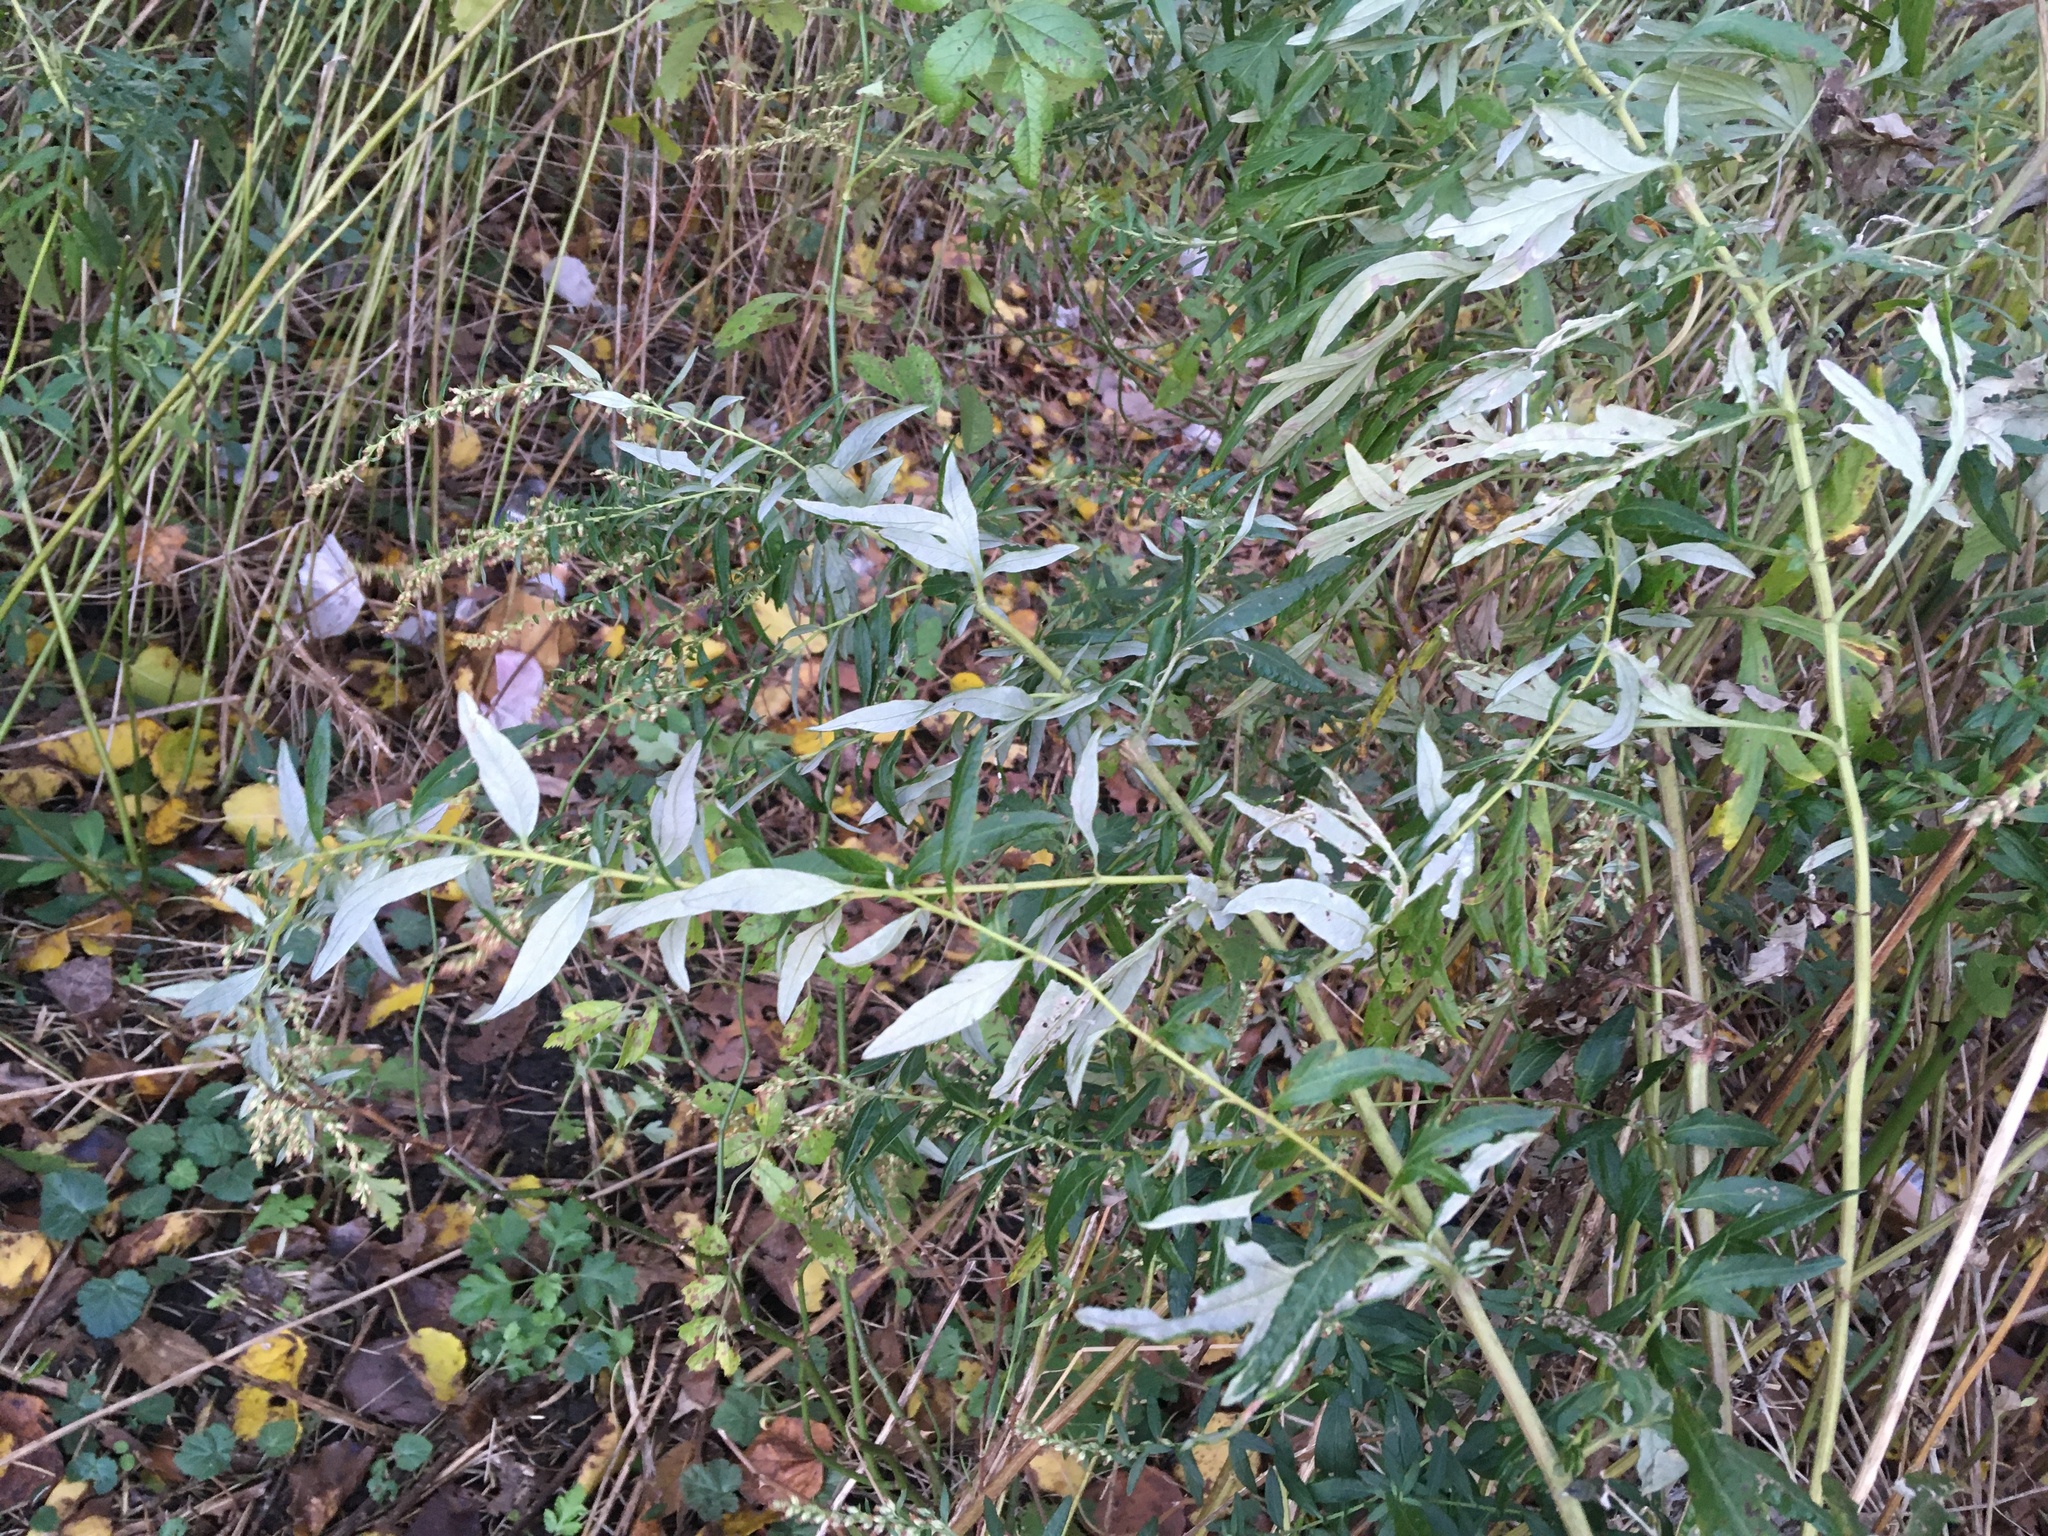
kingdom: Plantae
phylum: Tracheophyta
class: Magnoliopsida
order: Asterales
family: Asteraceae
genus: Artemisia
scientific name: Artemisia vulgaris
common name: Mugwort
